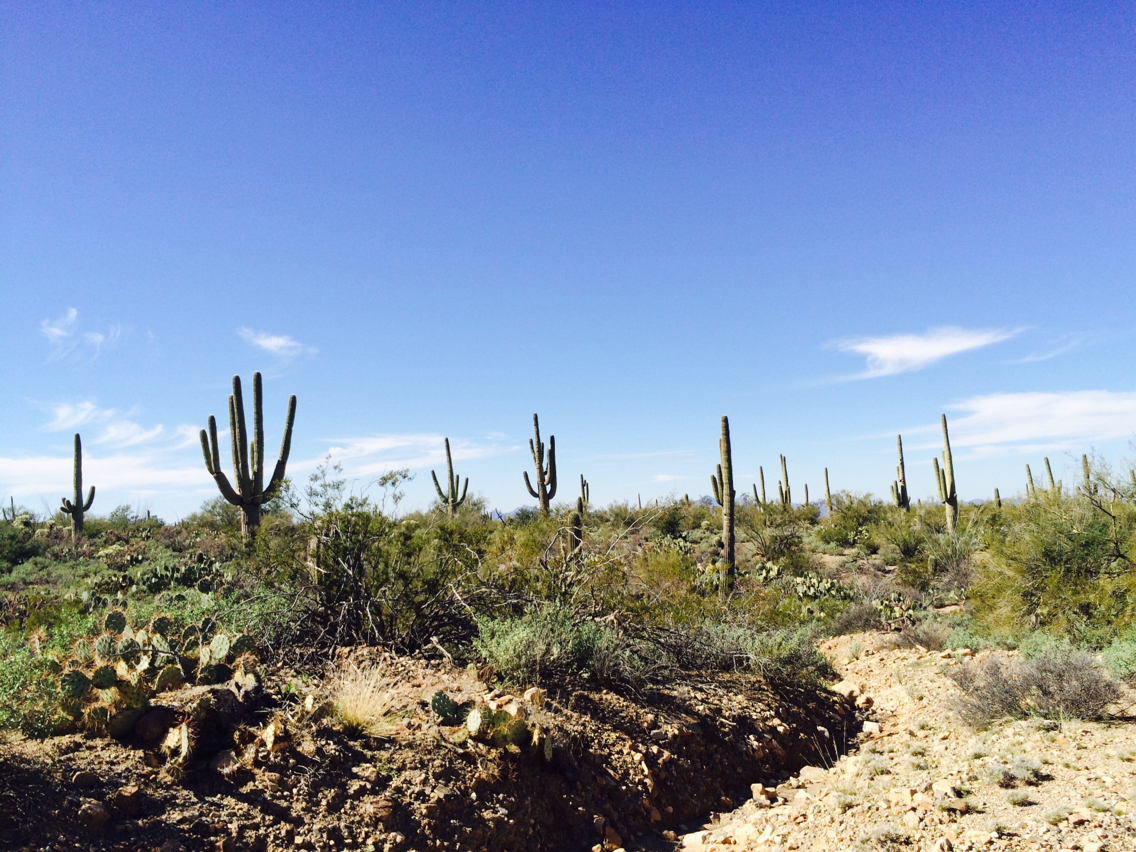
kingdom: Plantae
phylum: Tracheophyta
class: Magnoliopsida
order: Caryophyllales
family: Cactaceae
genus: Carnegiea
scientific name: Carnegiea gigantea
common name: Saguaro
